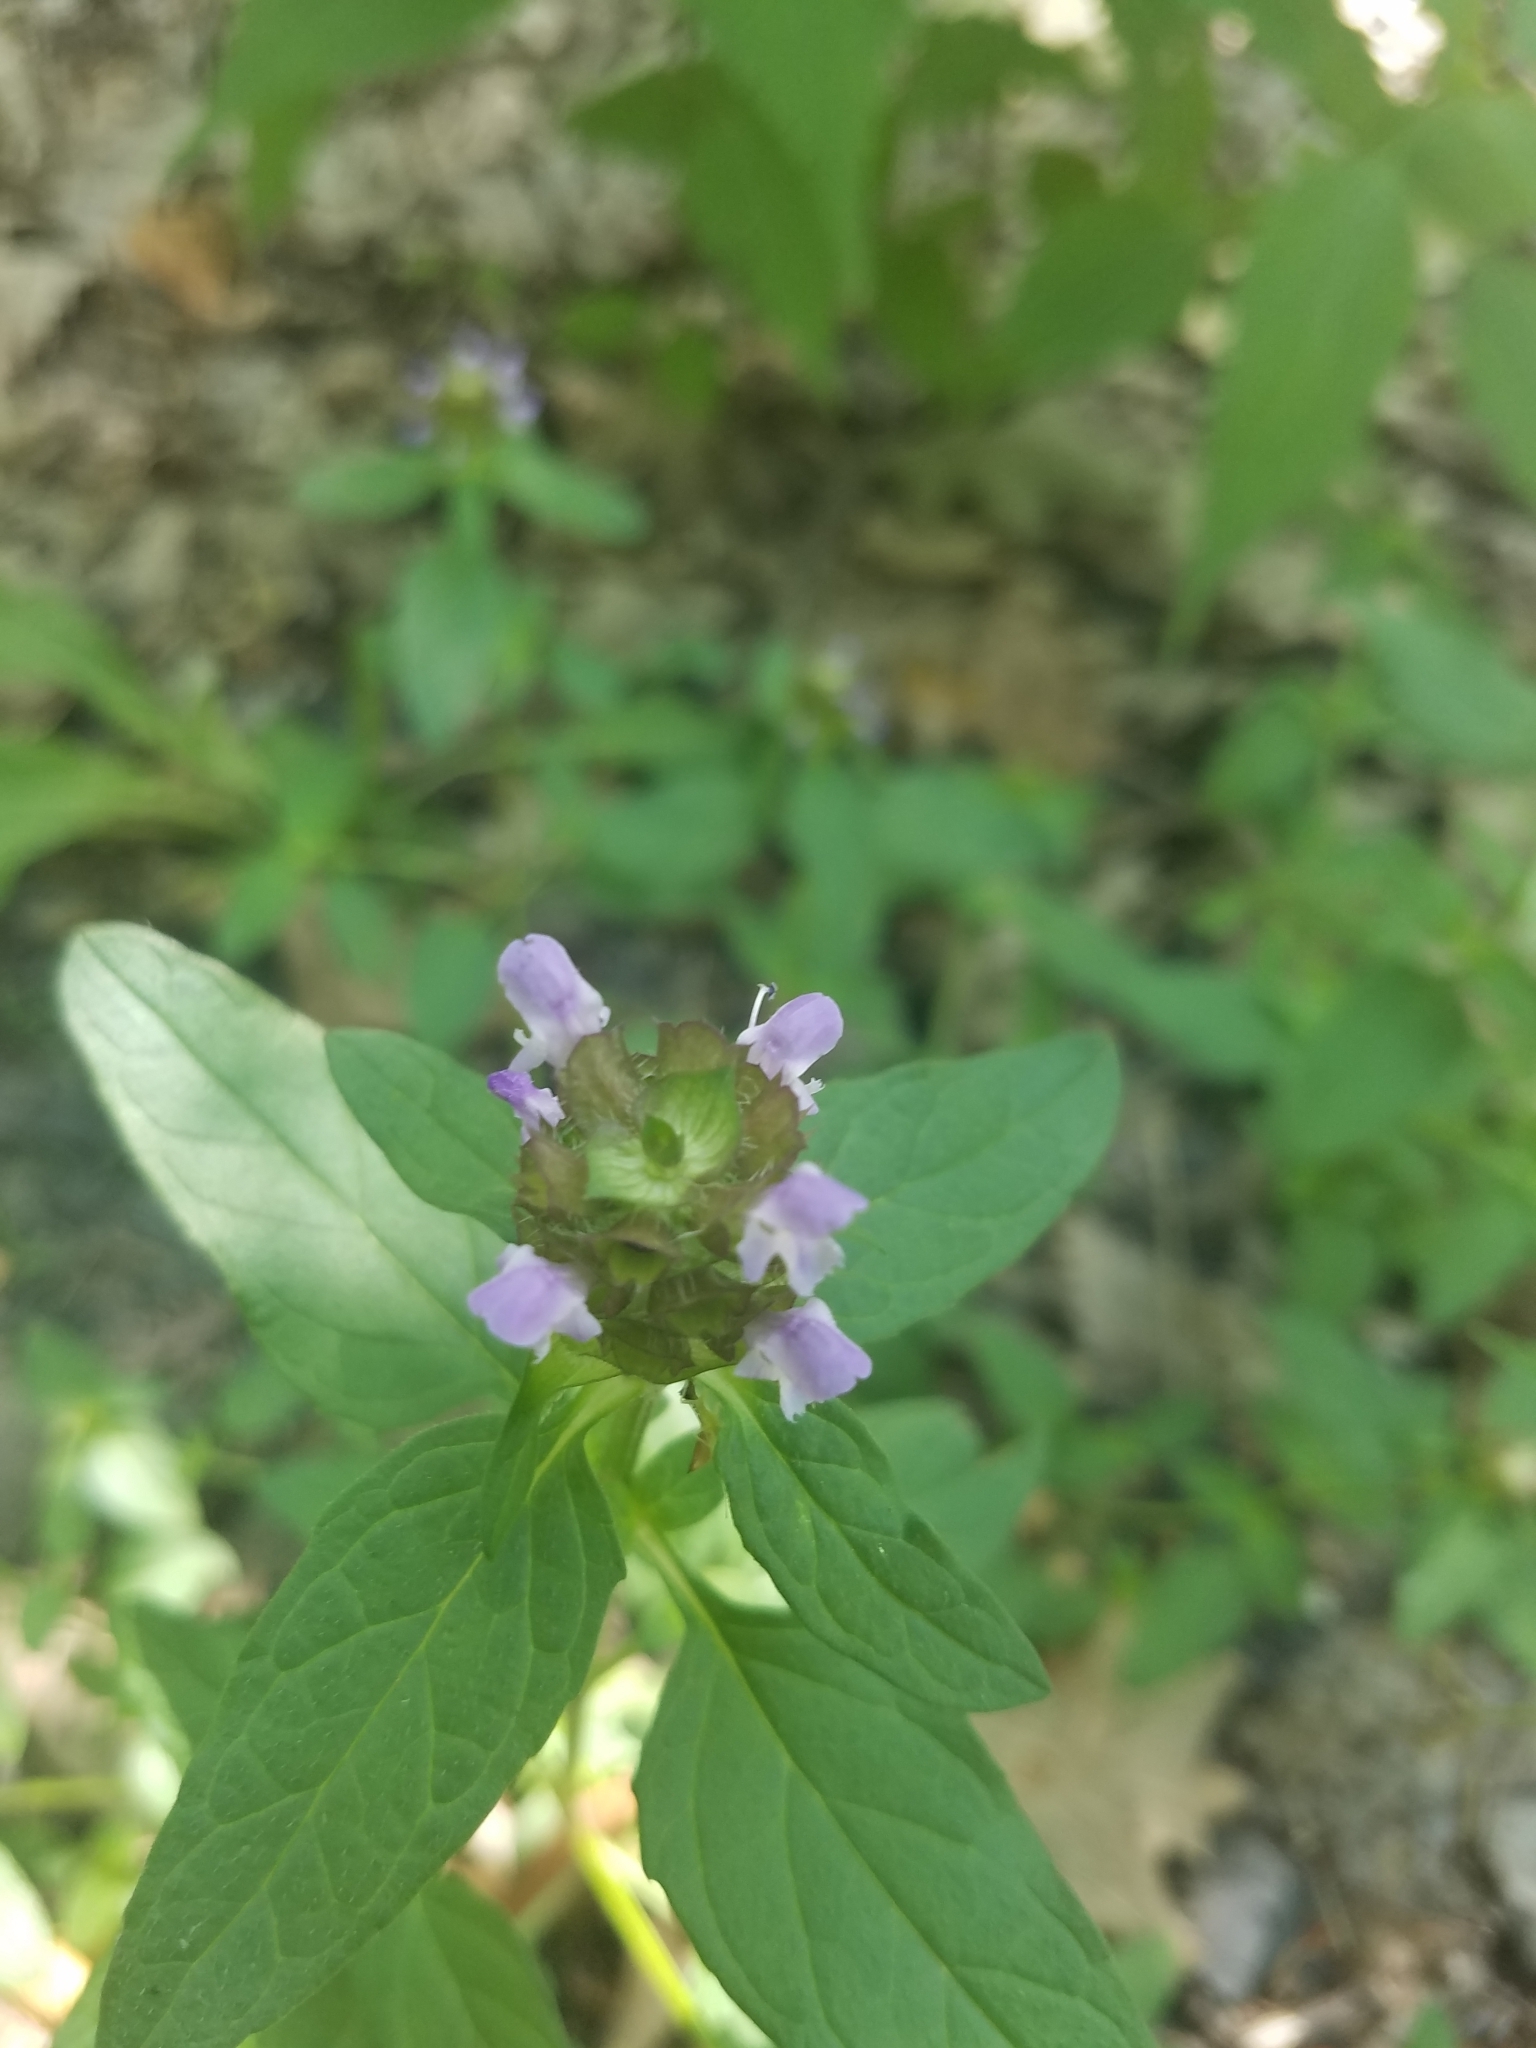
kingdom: Plantae
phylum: Tracheophyta
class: Magnoliopsida
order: Lamiales
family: Lamiaceae
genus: Prunella
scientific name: Prunella vulgaris
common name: Heal-all
